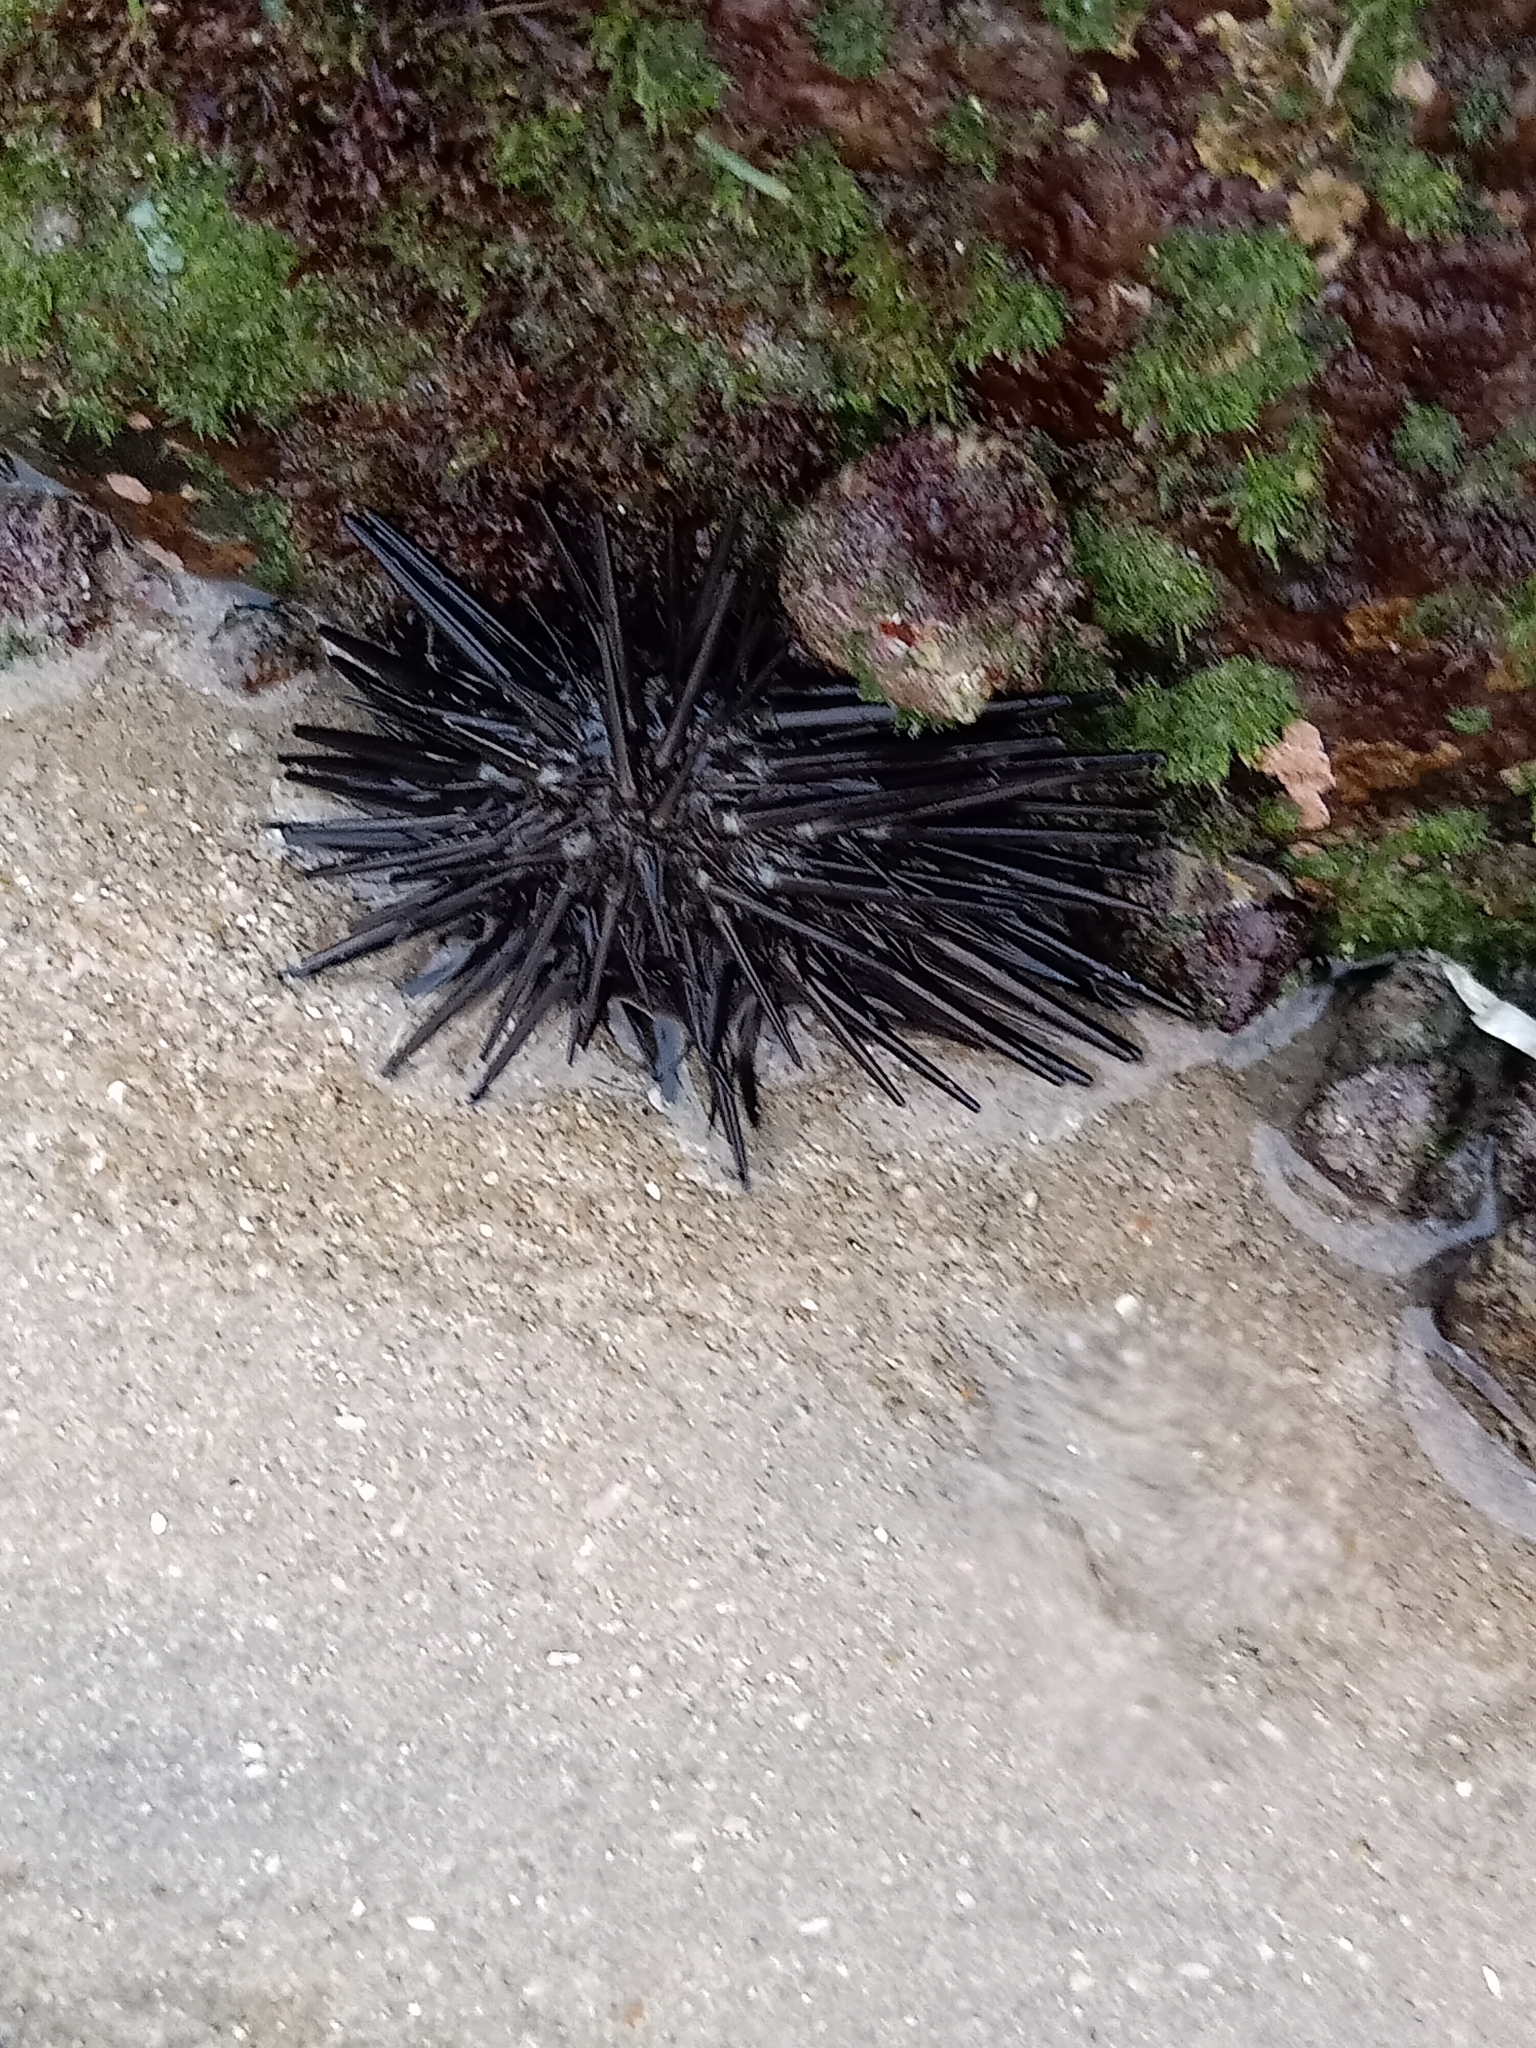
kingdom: Animalia
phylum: Echinodermata
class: Echinoidea
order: Stomopneustoida
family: Stomopneustidae
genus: Stomopneustes
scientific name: Stomopneustes variolaris
